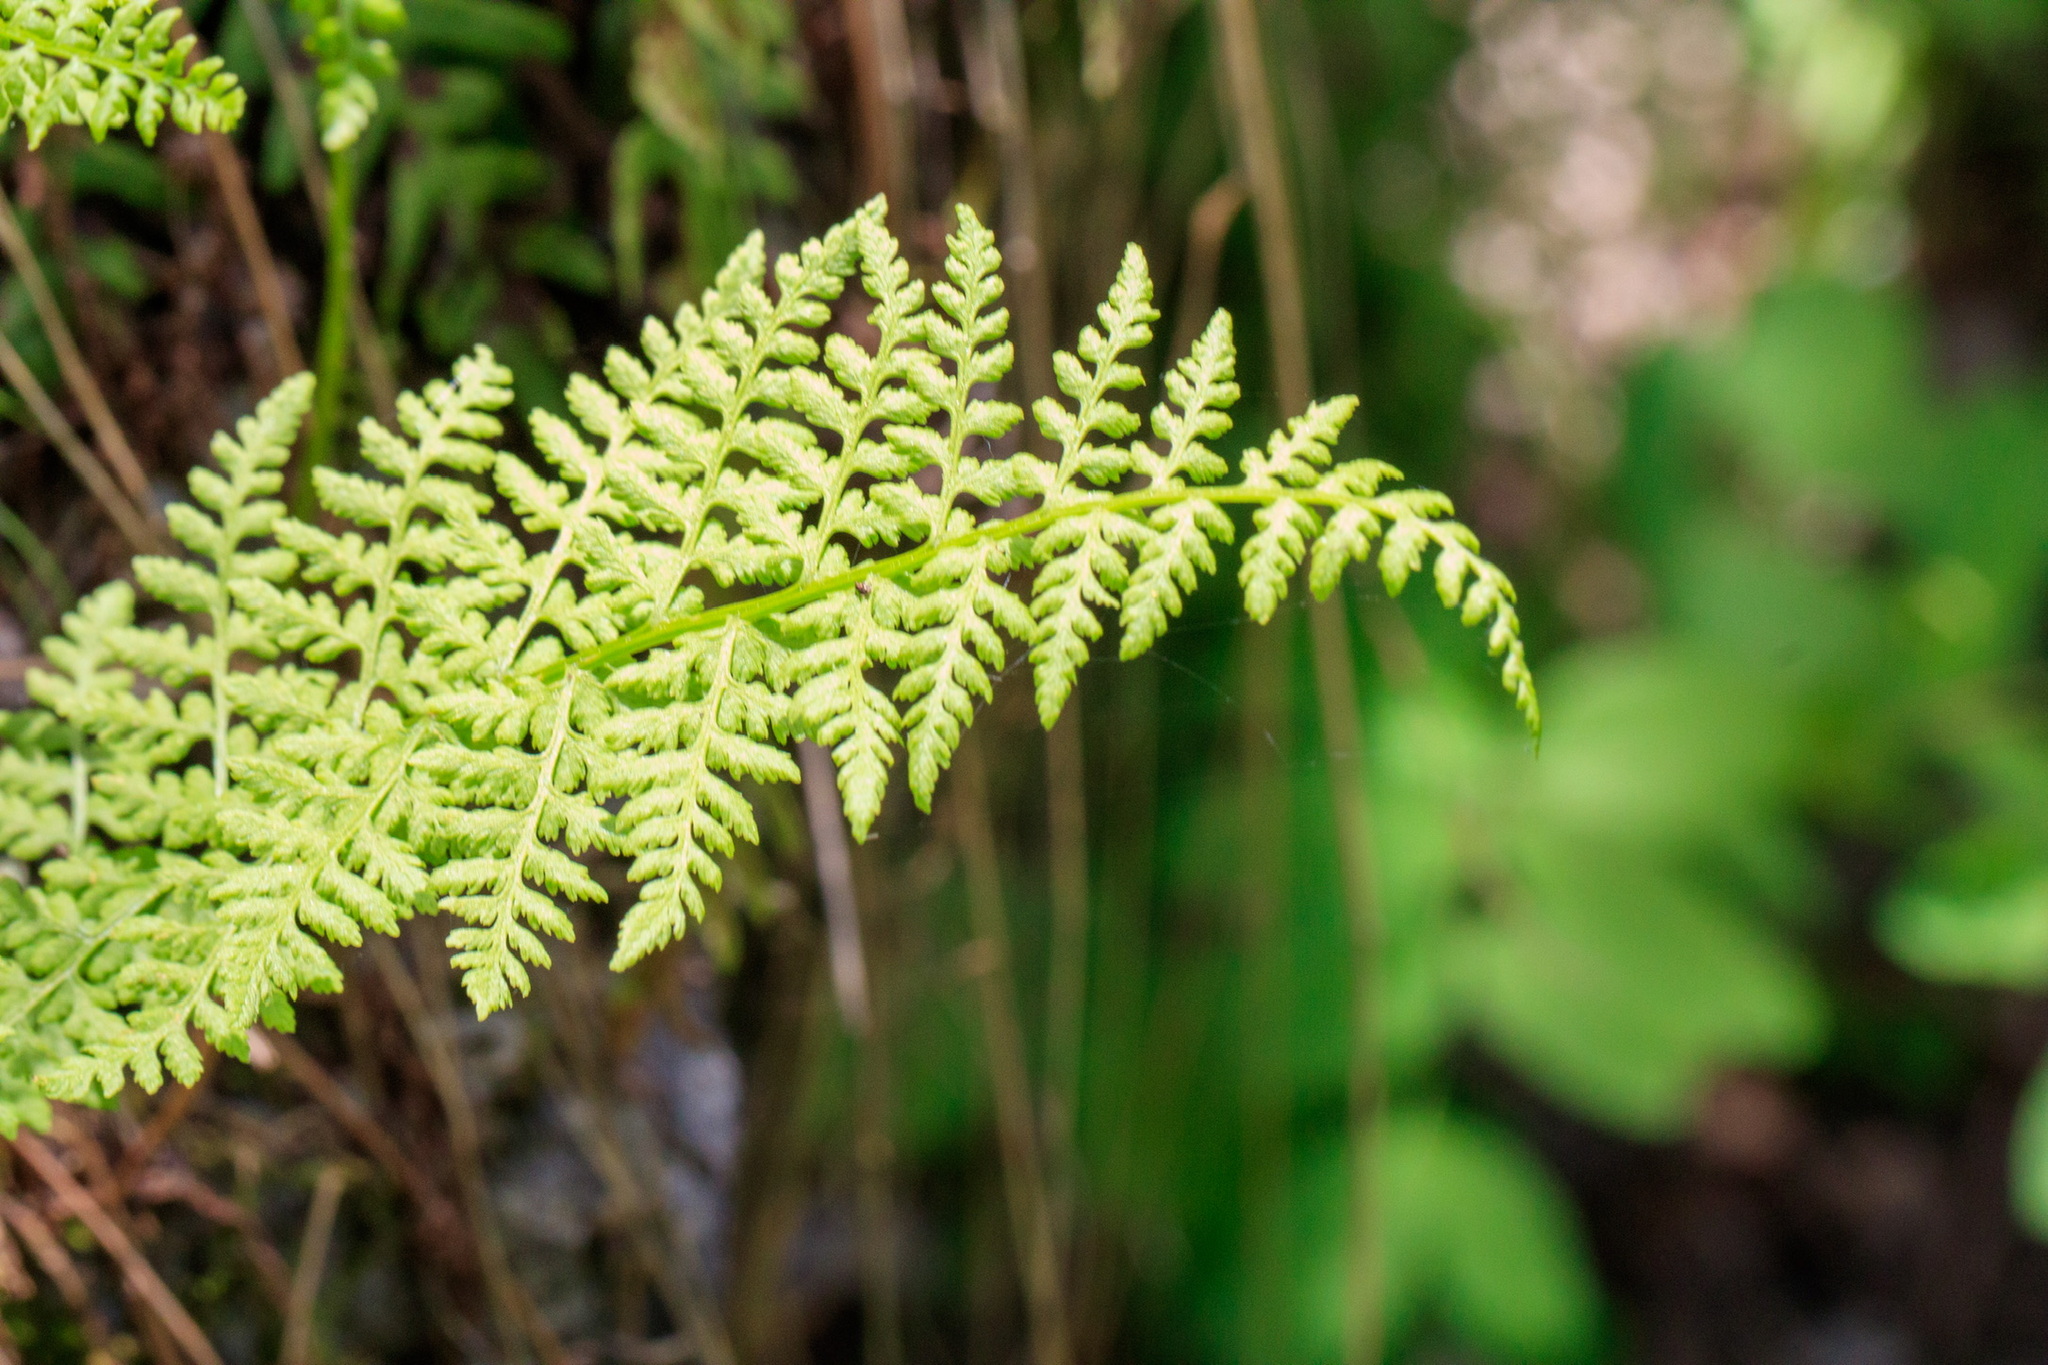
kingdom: Plantae
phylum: Tracheophyta
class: Polypodiopsida
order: Polypodiales
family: Cystopteridaceae
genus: Cystopteris
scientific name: Cystopteris fragilis
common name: Brittle bladder fern
